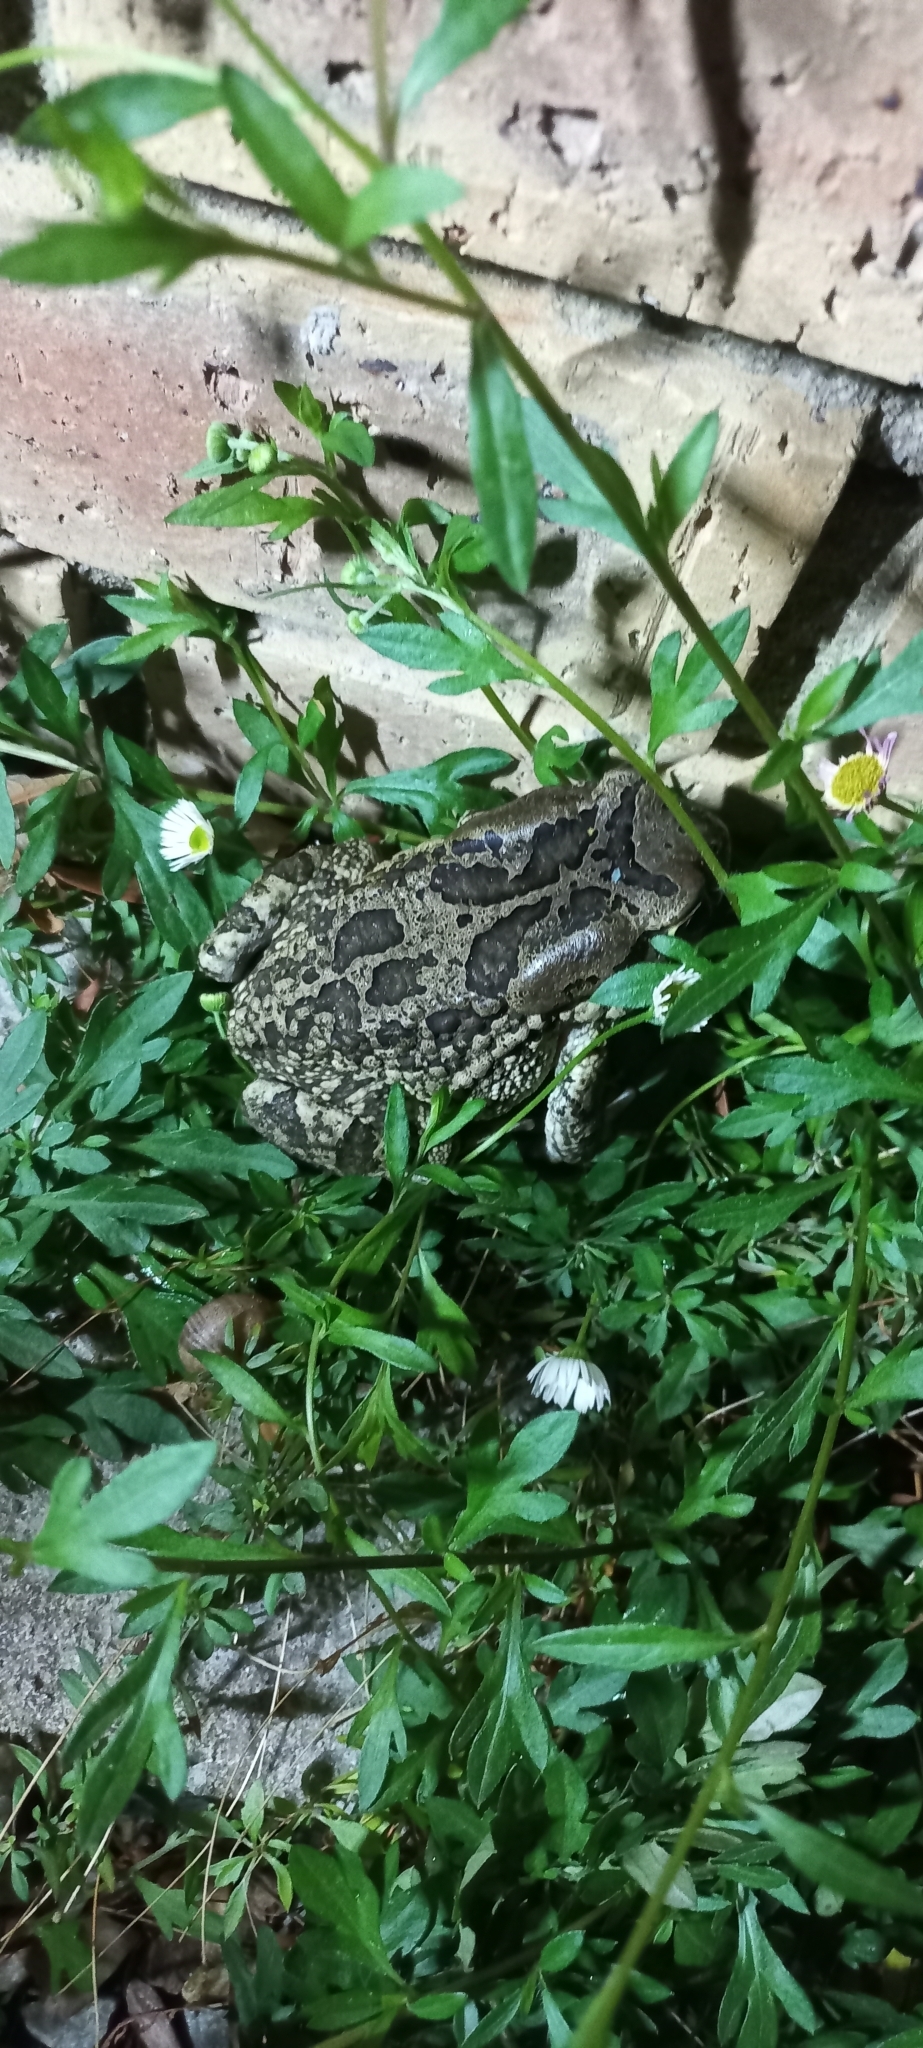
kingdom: Animalia
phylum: Chordata
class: Amphibia
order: Anura
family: Bufonidae
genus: Sclerophrys
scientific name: Sclerophrys capensis
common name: Ranger’s toad
